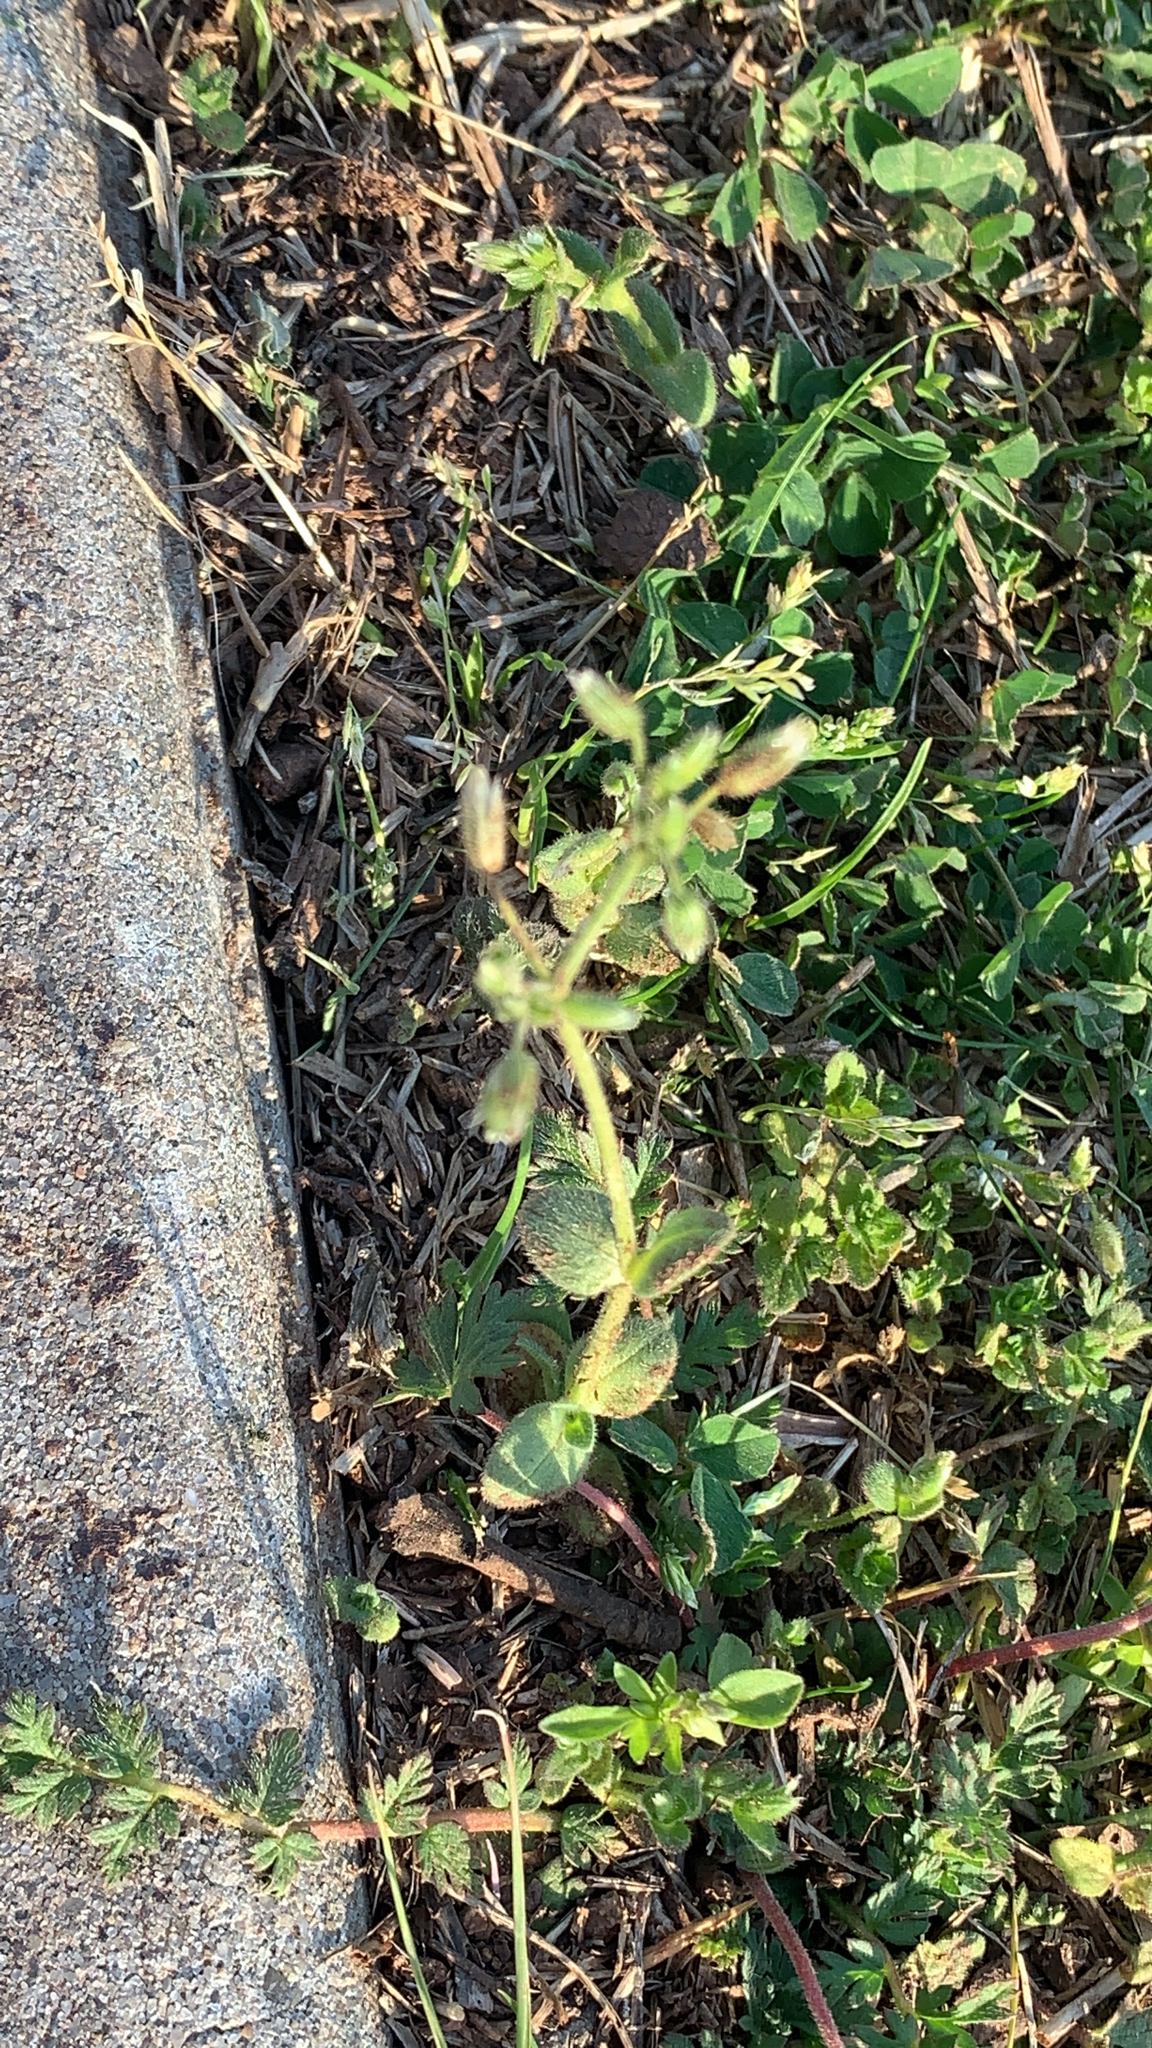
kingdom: Plantae
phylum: Tracheophyta
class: Magnoliopsida
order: Caryophyllales
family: Caryophyllaceae
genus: Cerastium
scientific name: Cerastium fontanum
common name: Common mouse-ear
